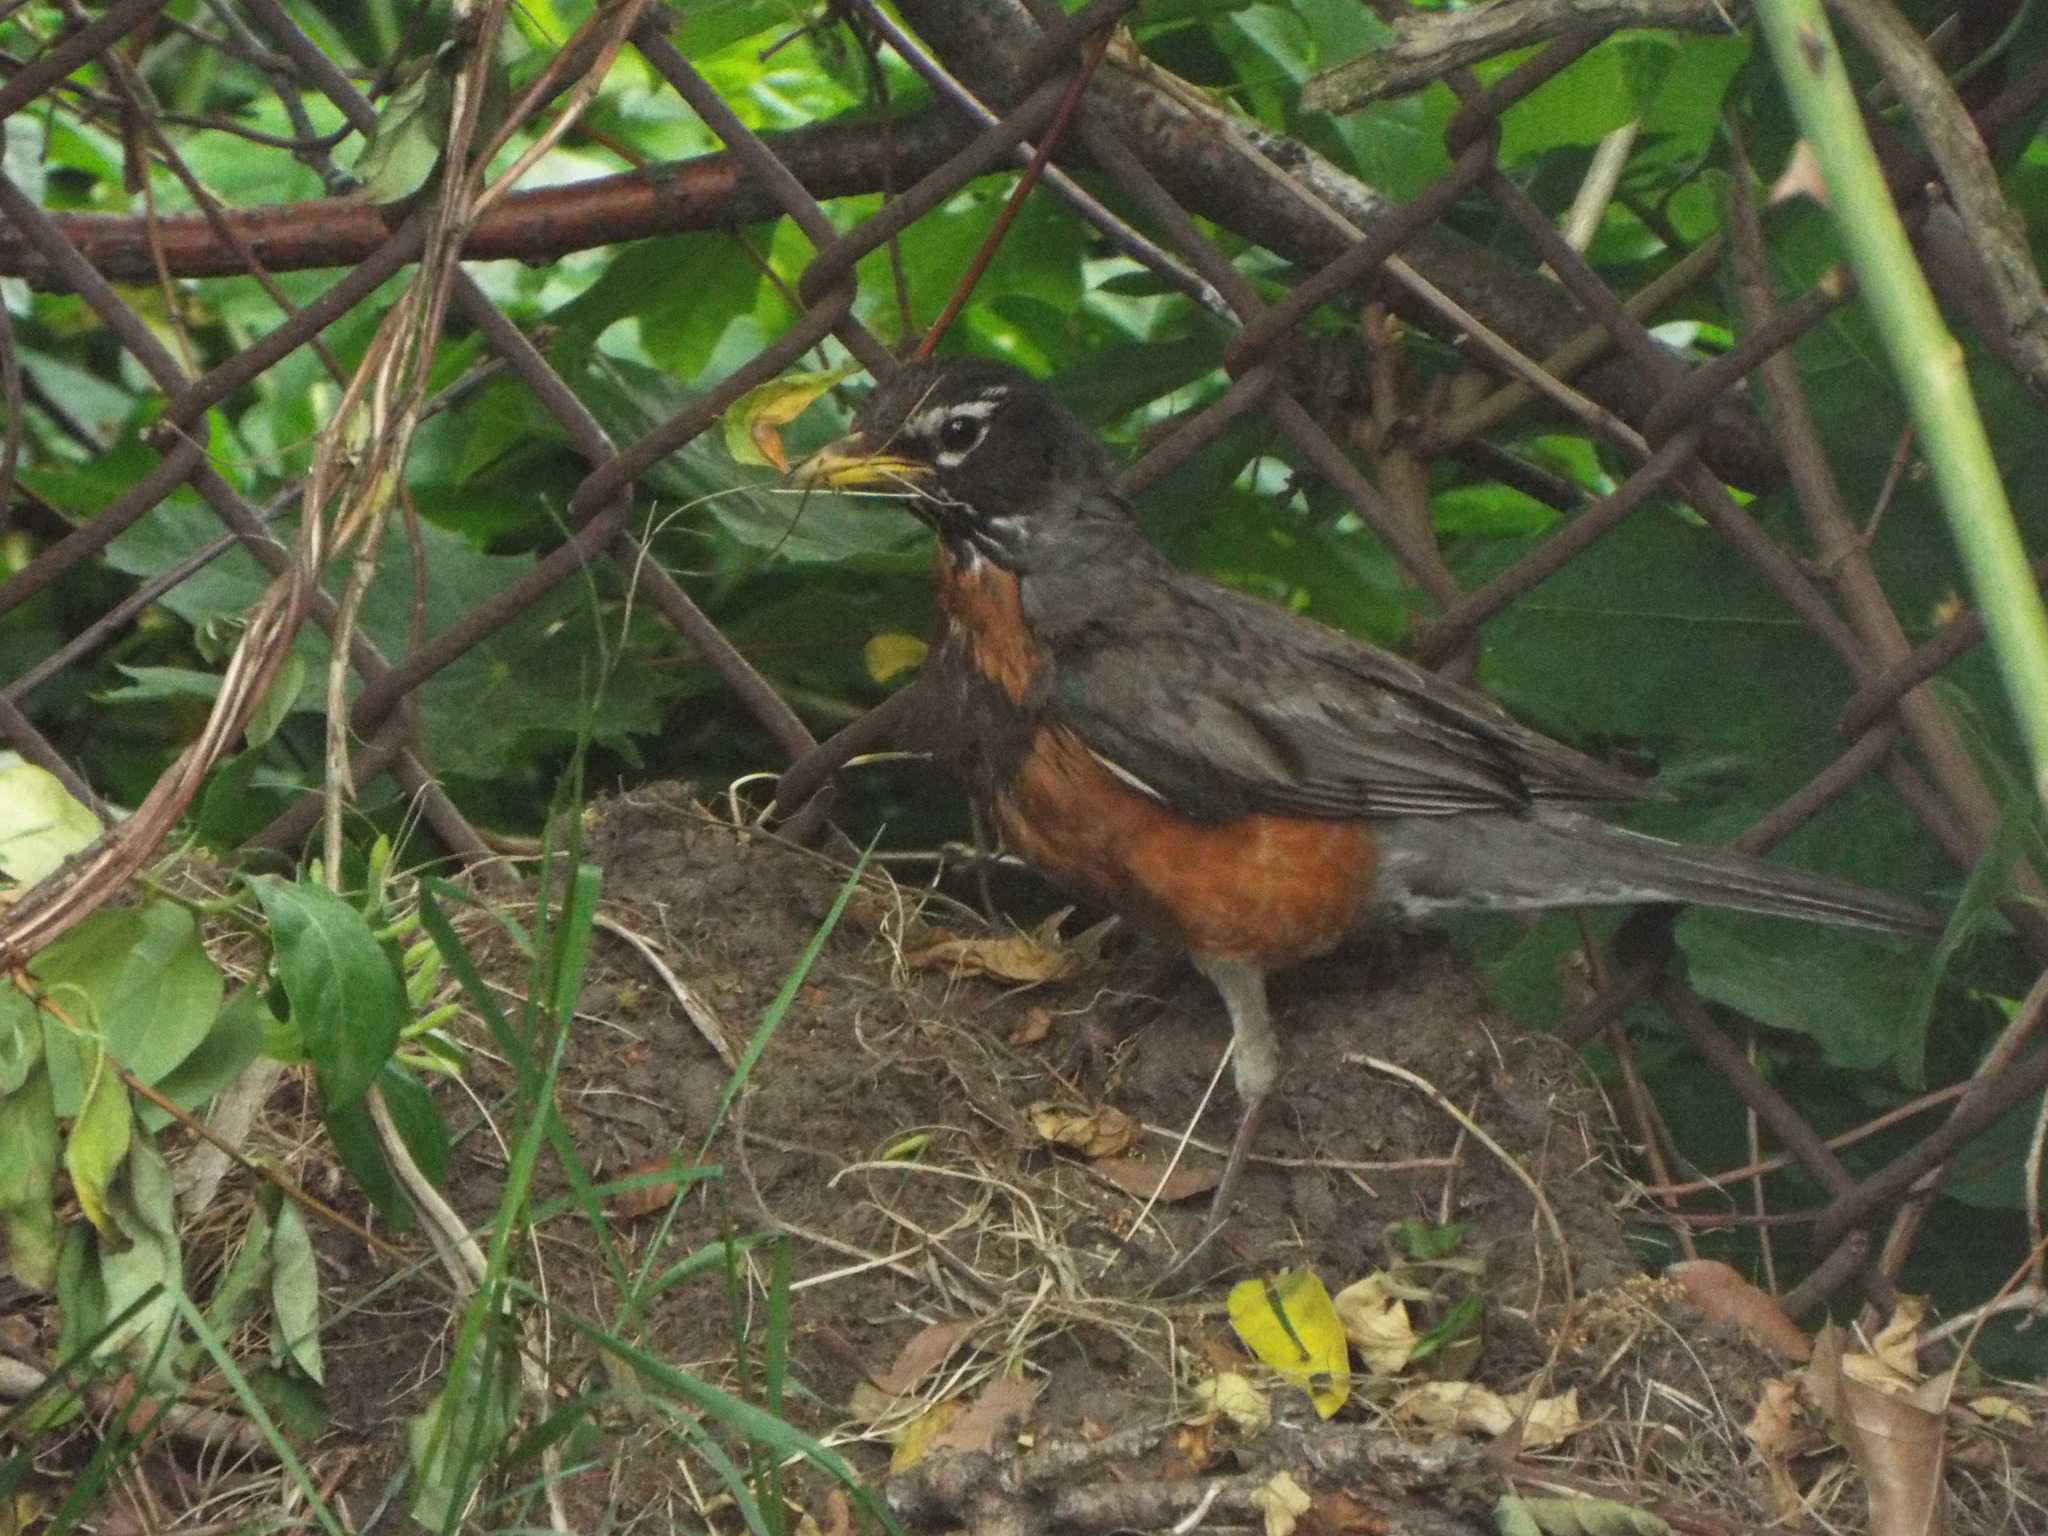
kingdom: Animalia
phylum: Chordata
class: Aves
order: Passeriformes
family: Turdidae
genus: Turdus
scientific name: Turdus migratorius
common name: American robin
